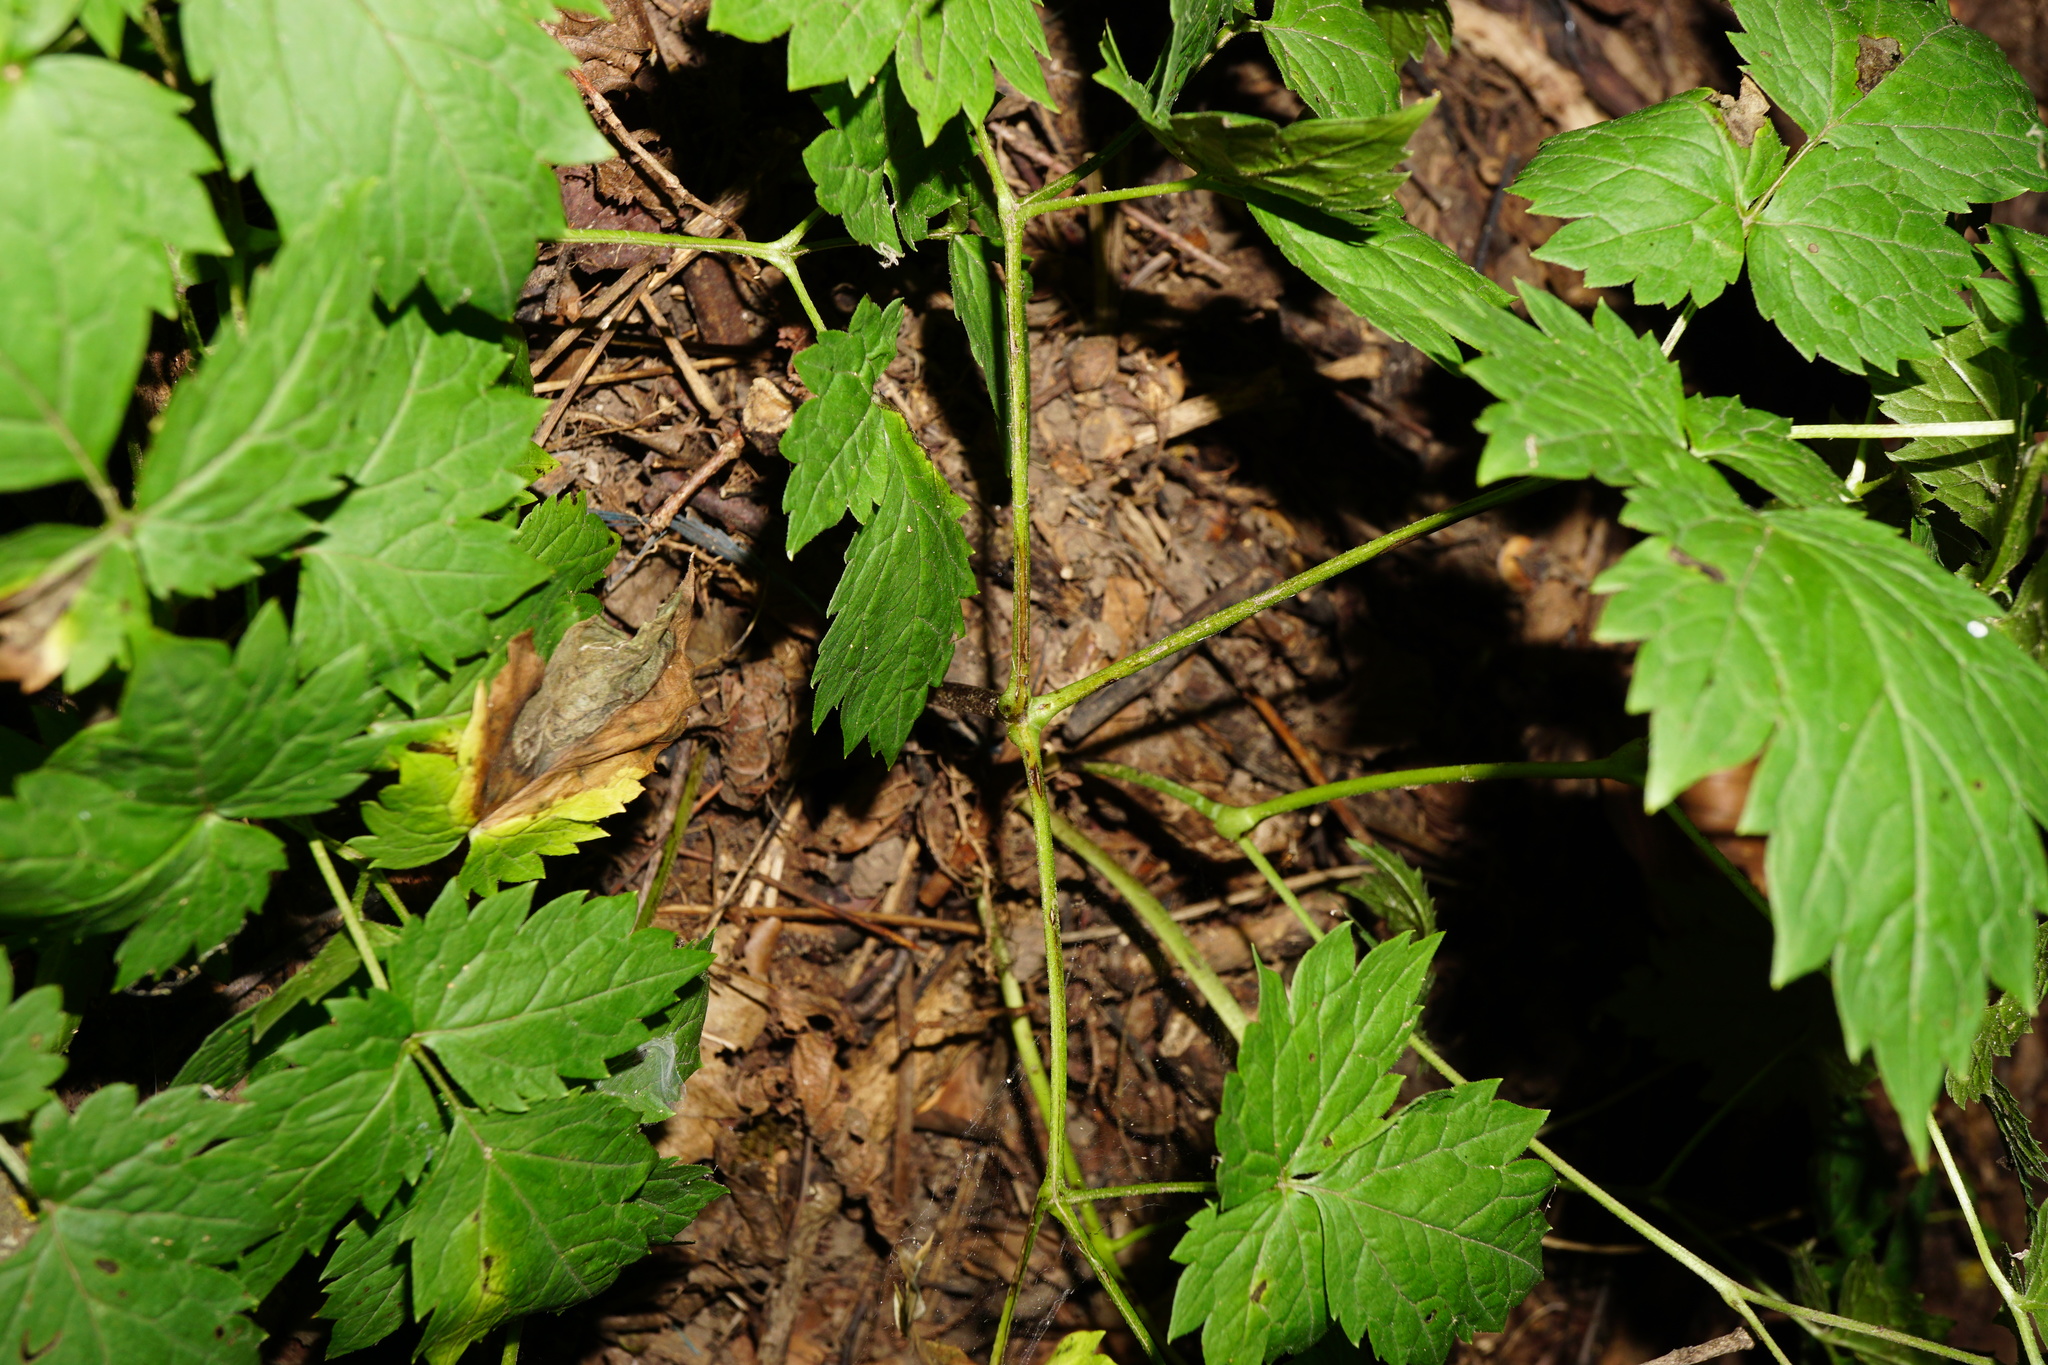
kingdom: Plantae
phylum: Tracheophyta
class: Magnoliopsida
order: Ranunculales
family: Ranunculaceae
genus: Actaea
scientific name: Actaea spicata
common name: Baneberry
